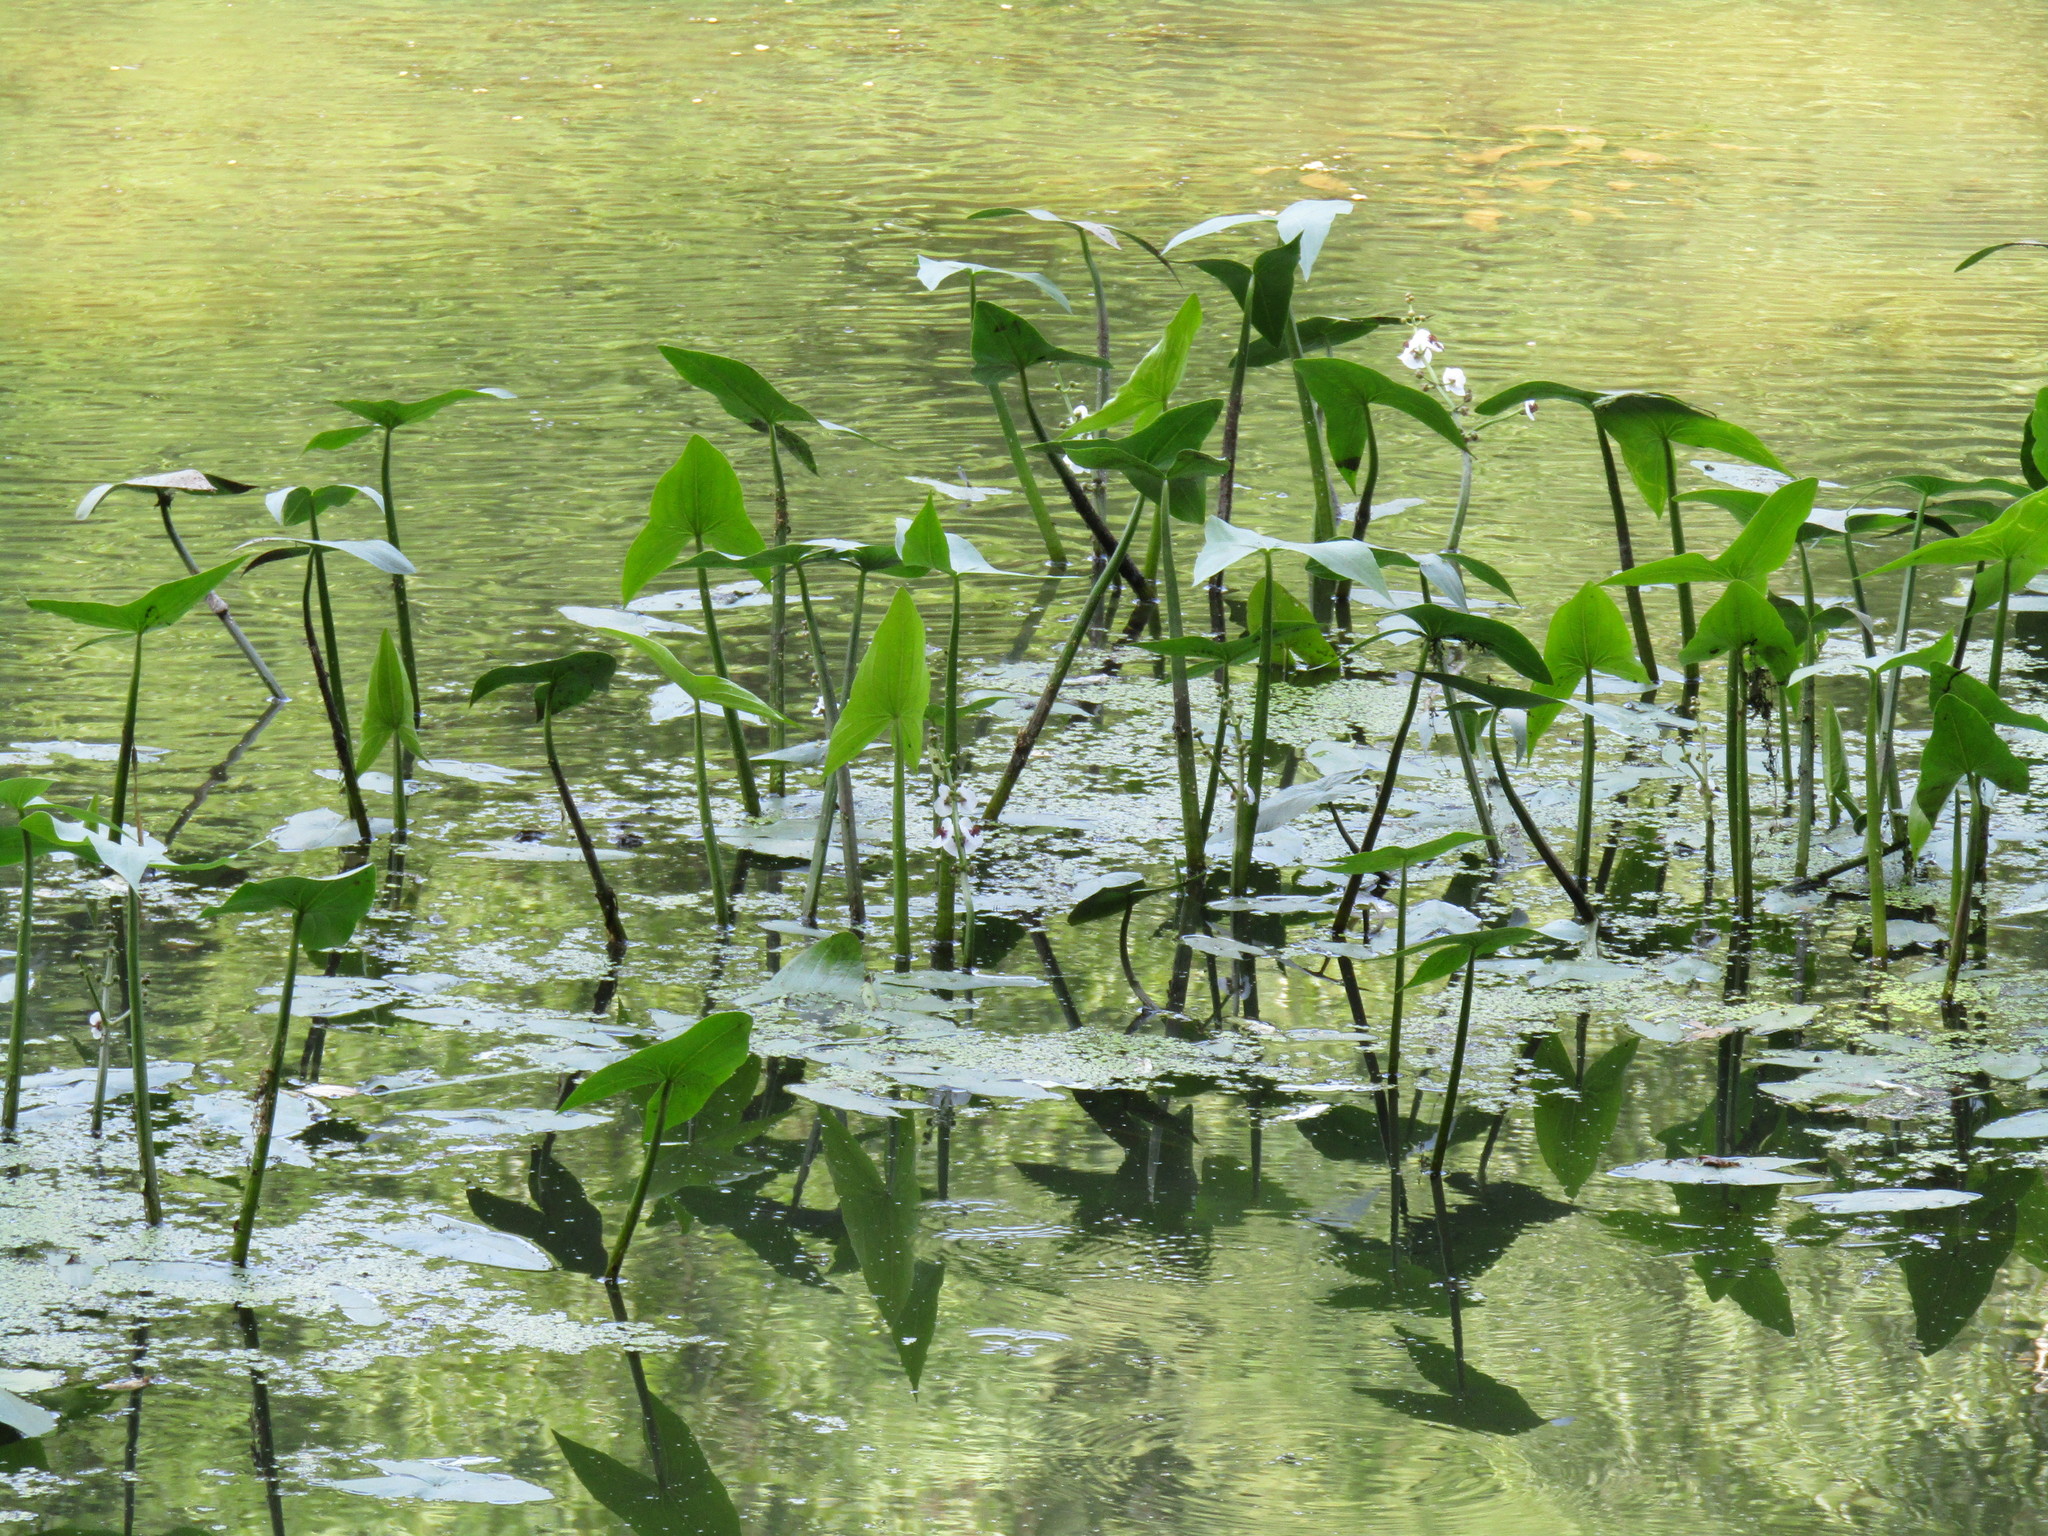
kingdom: Plantae
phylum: Tracheophyta
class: Liliopsida
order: Alismatales
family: Alismataceae
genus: Sagittaria
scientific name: Sagittaria sagittifolia
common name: Arrowhead
